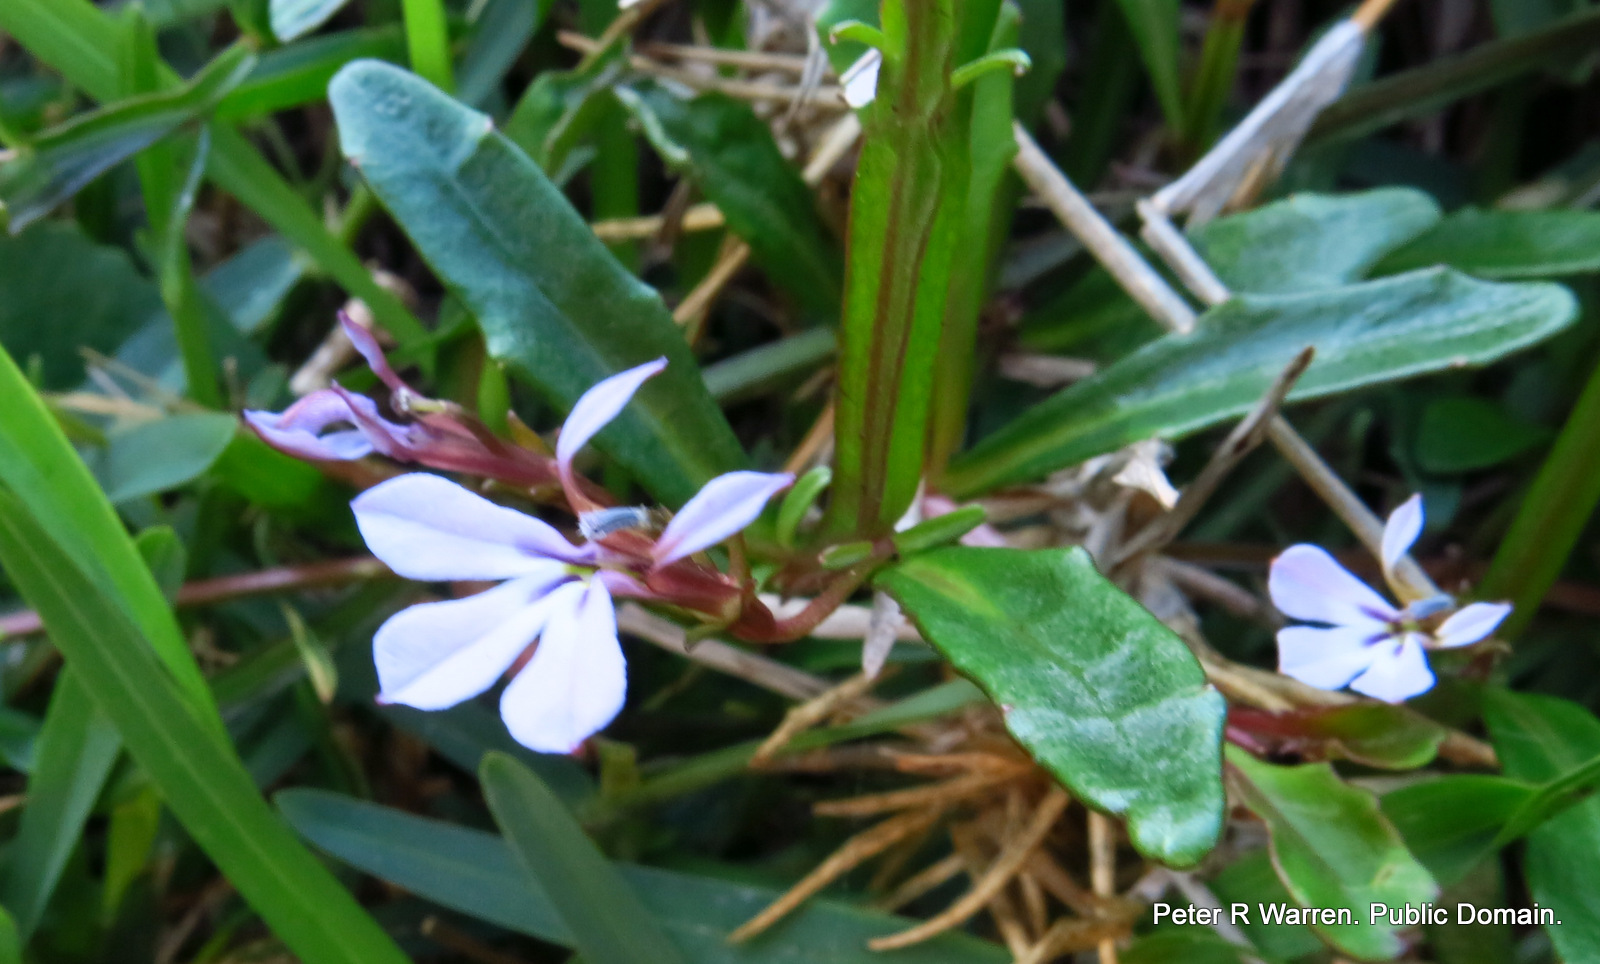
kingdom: Plantae
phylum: Tracheophyta
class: Magnoliopsida
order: Asterales
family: Campanulaceae
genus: Lobelia
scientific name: Lobelia anceps
